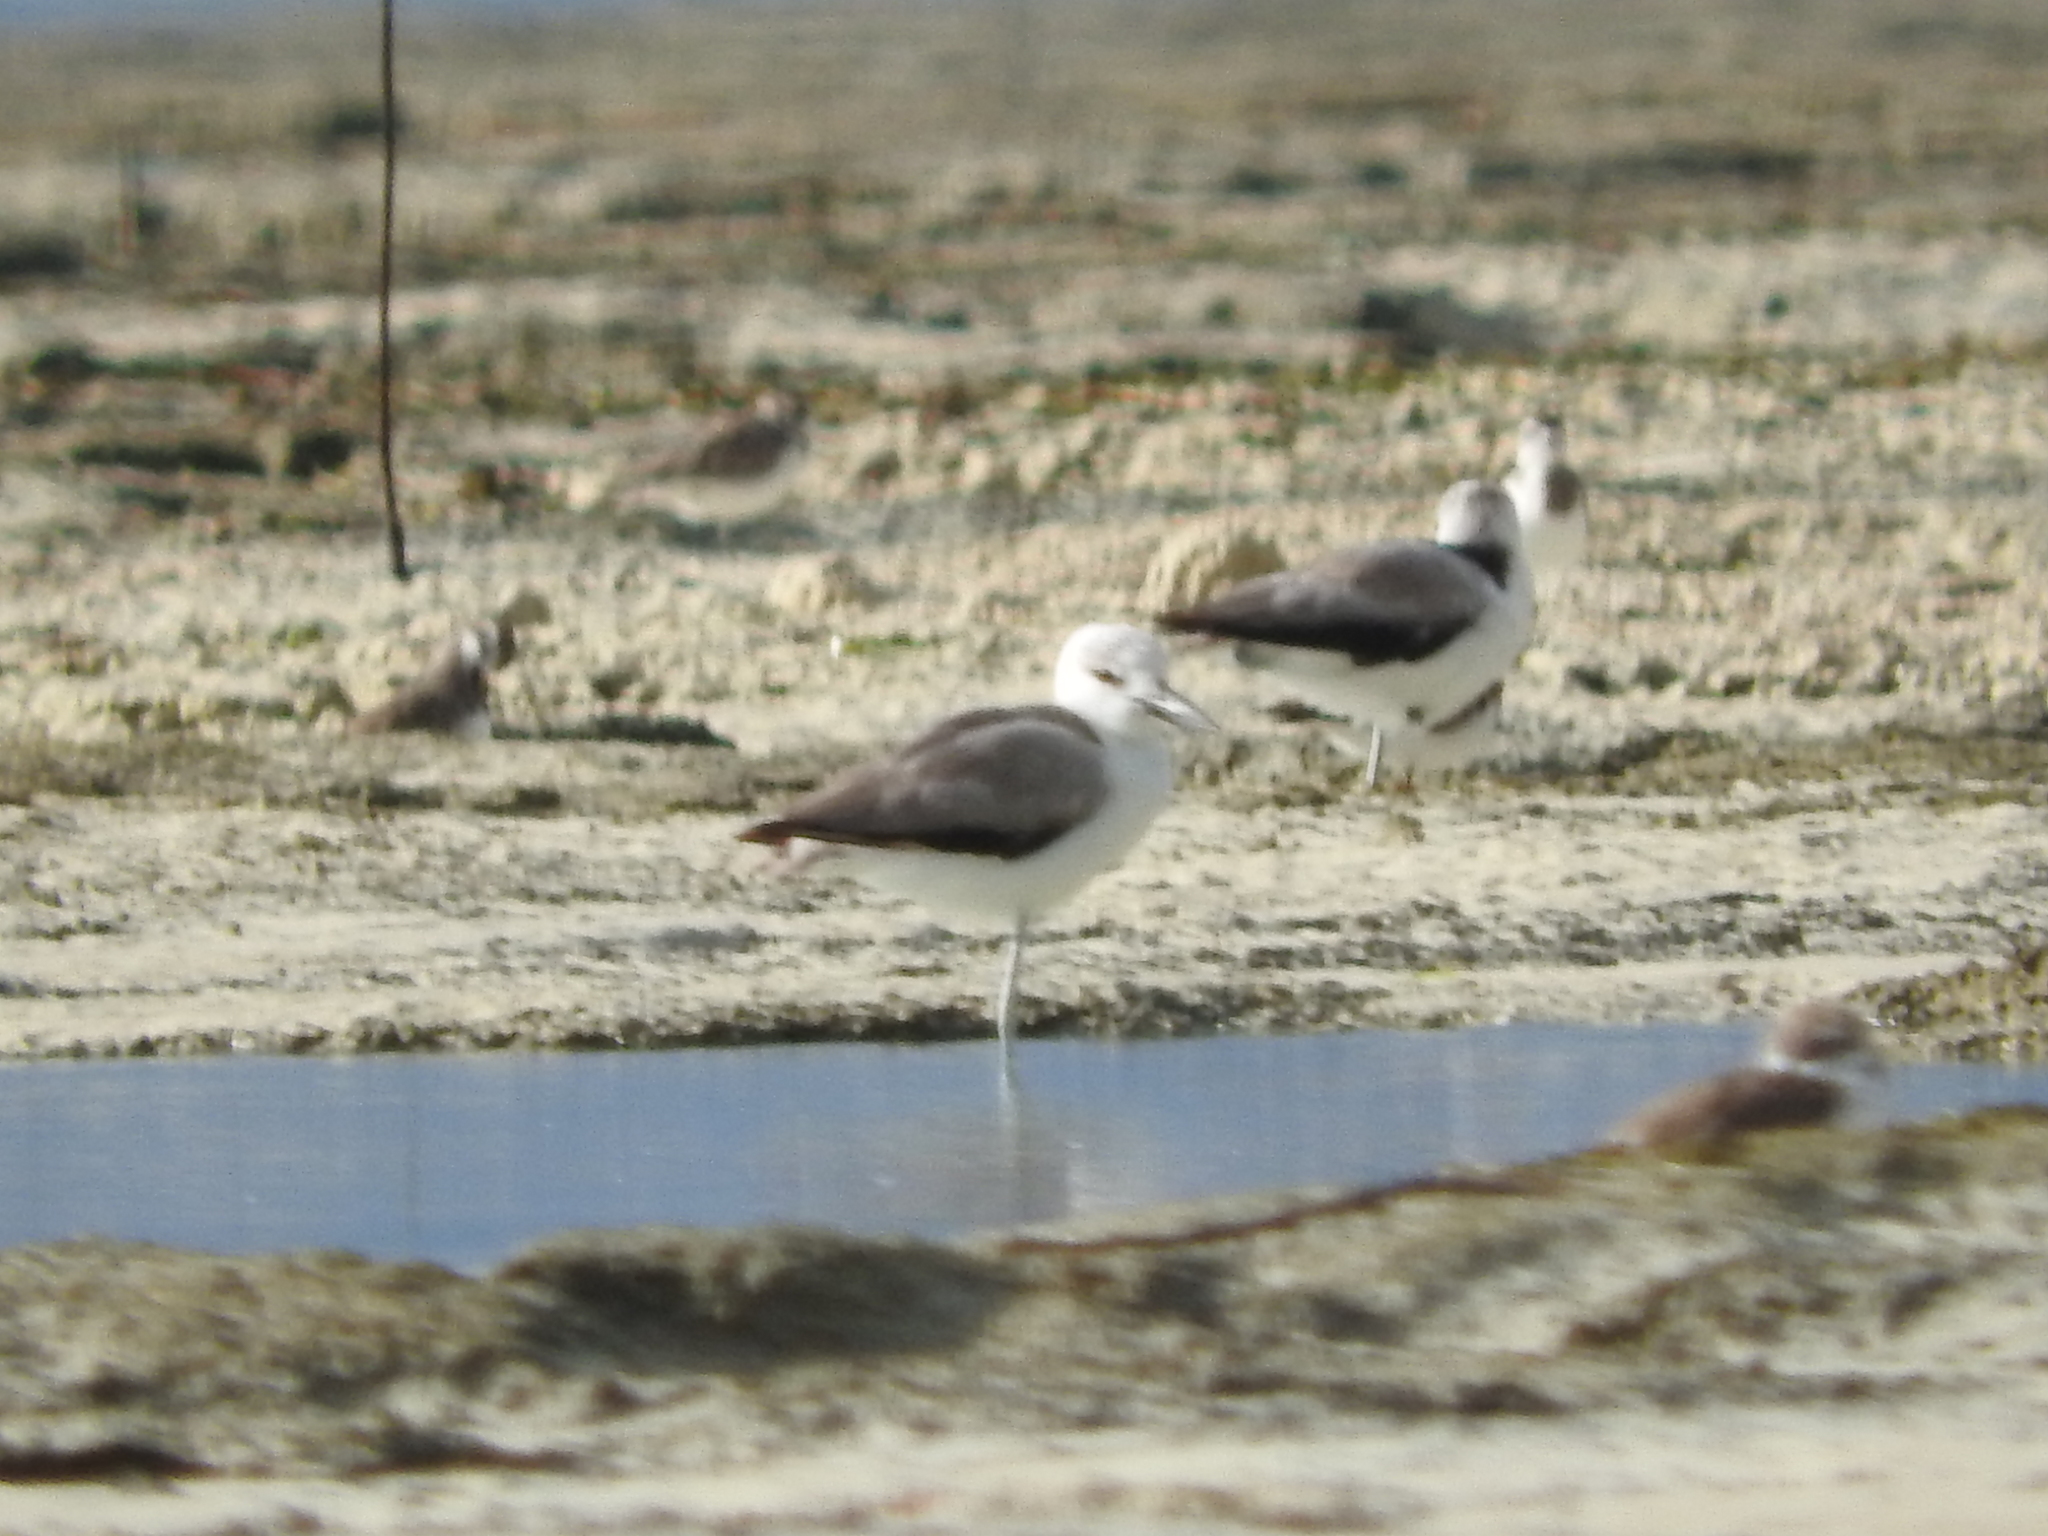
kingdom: Animalia
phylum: Chordata
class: Aves
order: Charadriiformes
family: Dromadidae
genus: Dromas
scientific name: Dromas ardeola
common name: Crab-plover
